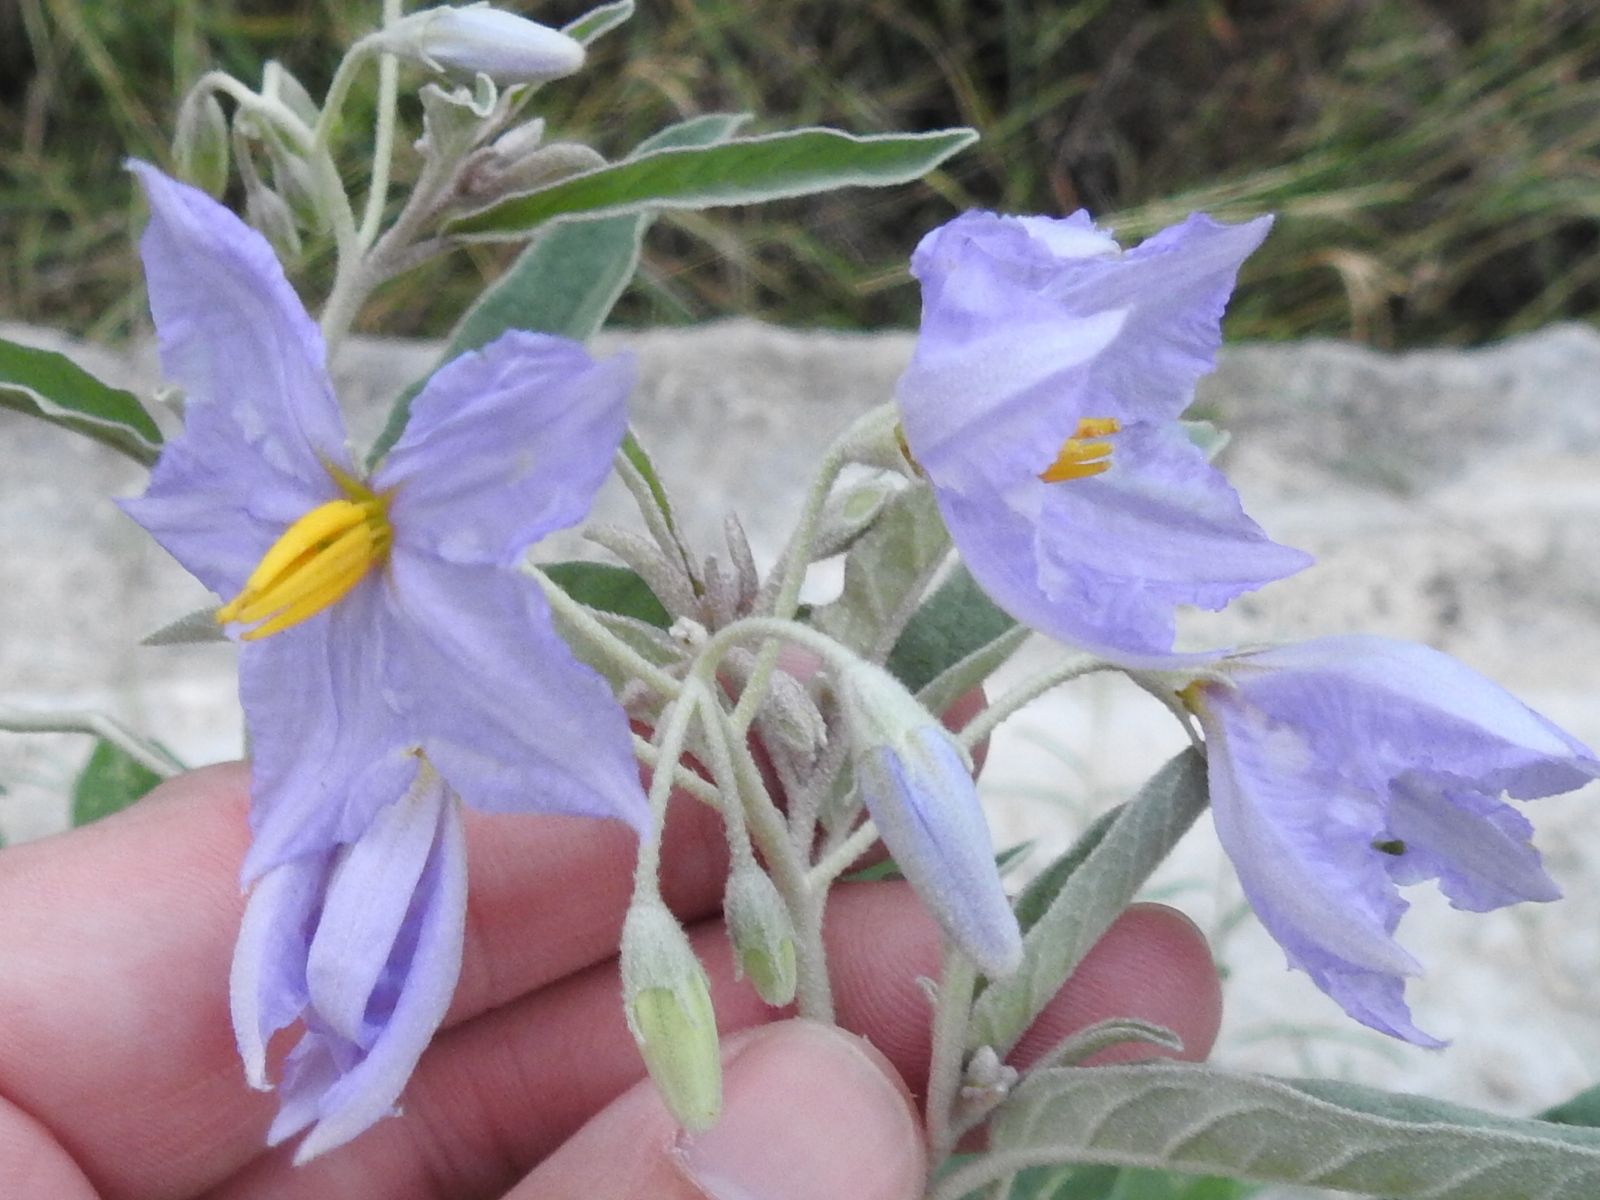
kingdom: Plantae
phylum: Tracheophyta
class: Magnoliopsida
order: Solanales
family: Solanaceae
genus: Solanum
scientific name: Solanum elaeagnifolium
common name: Silverleaf nightshade
